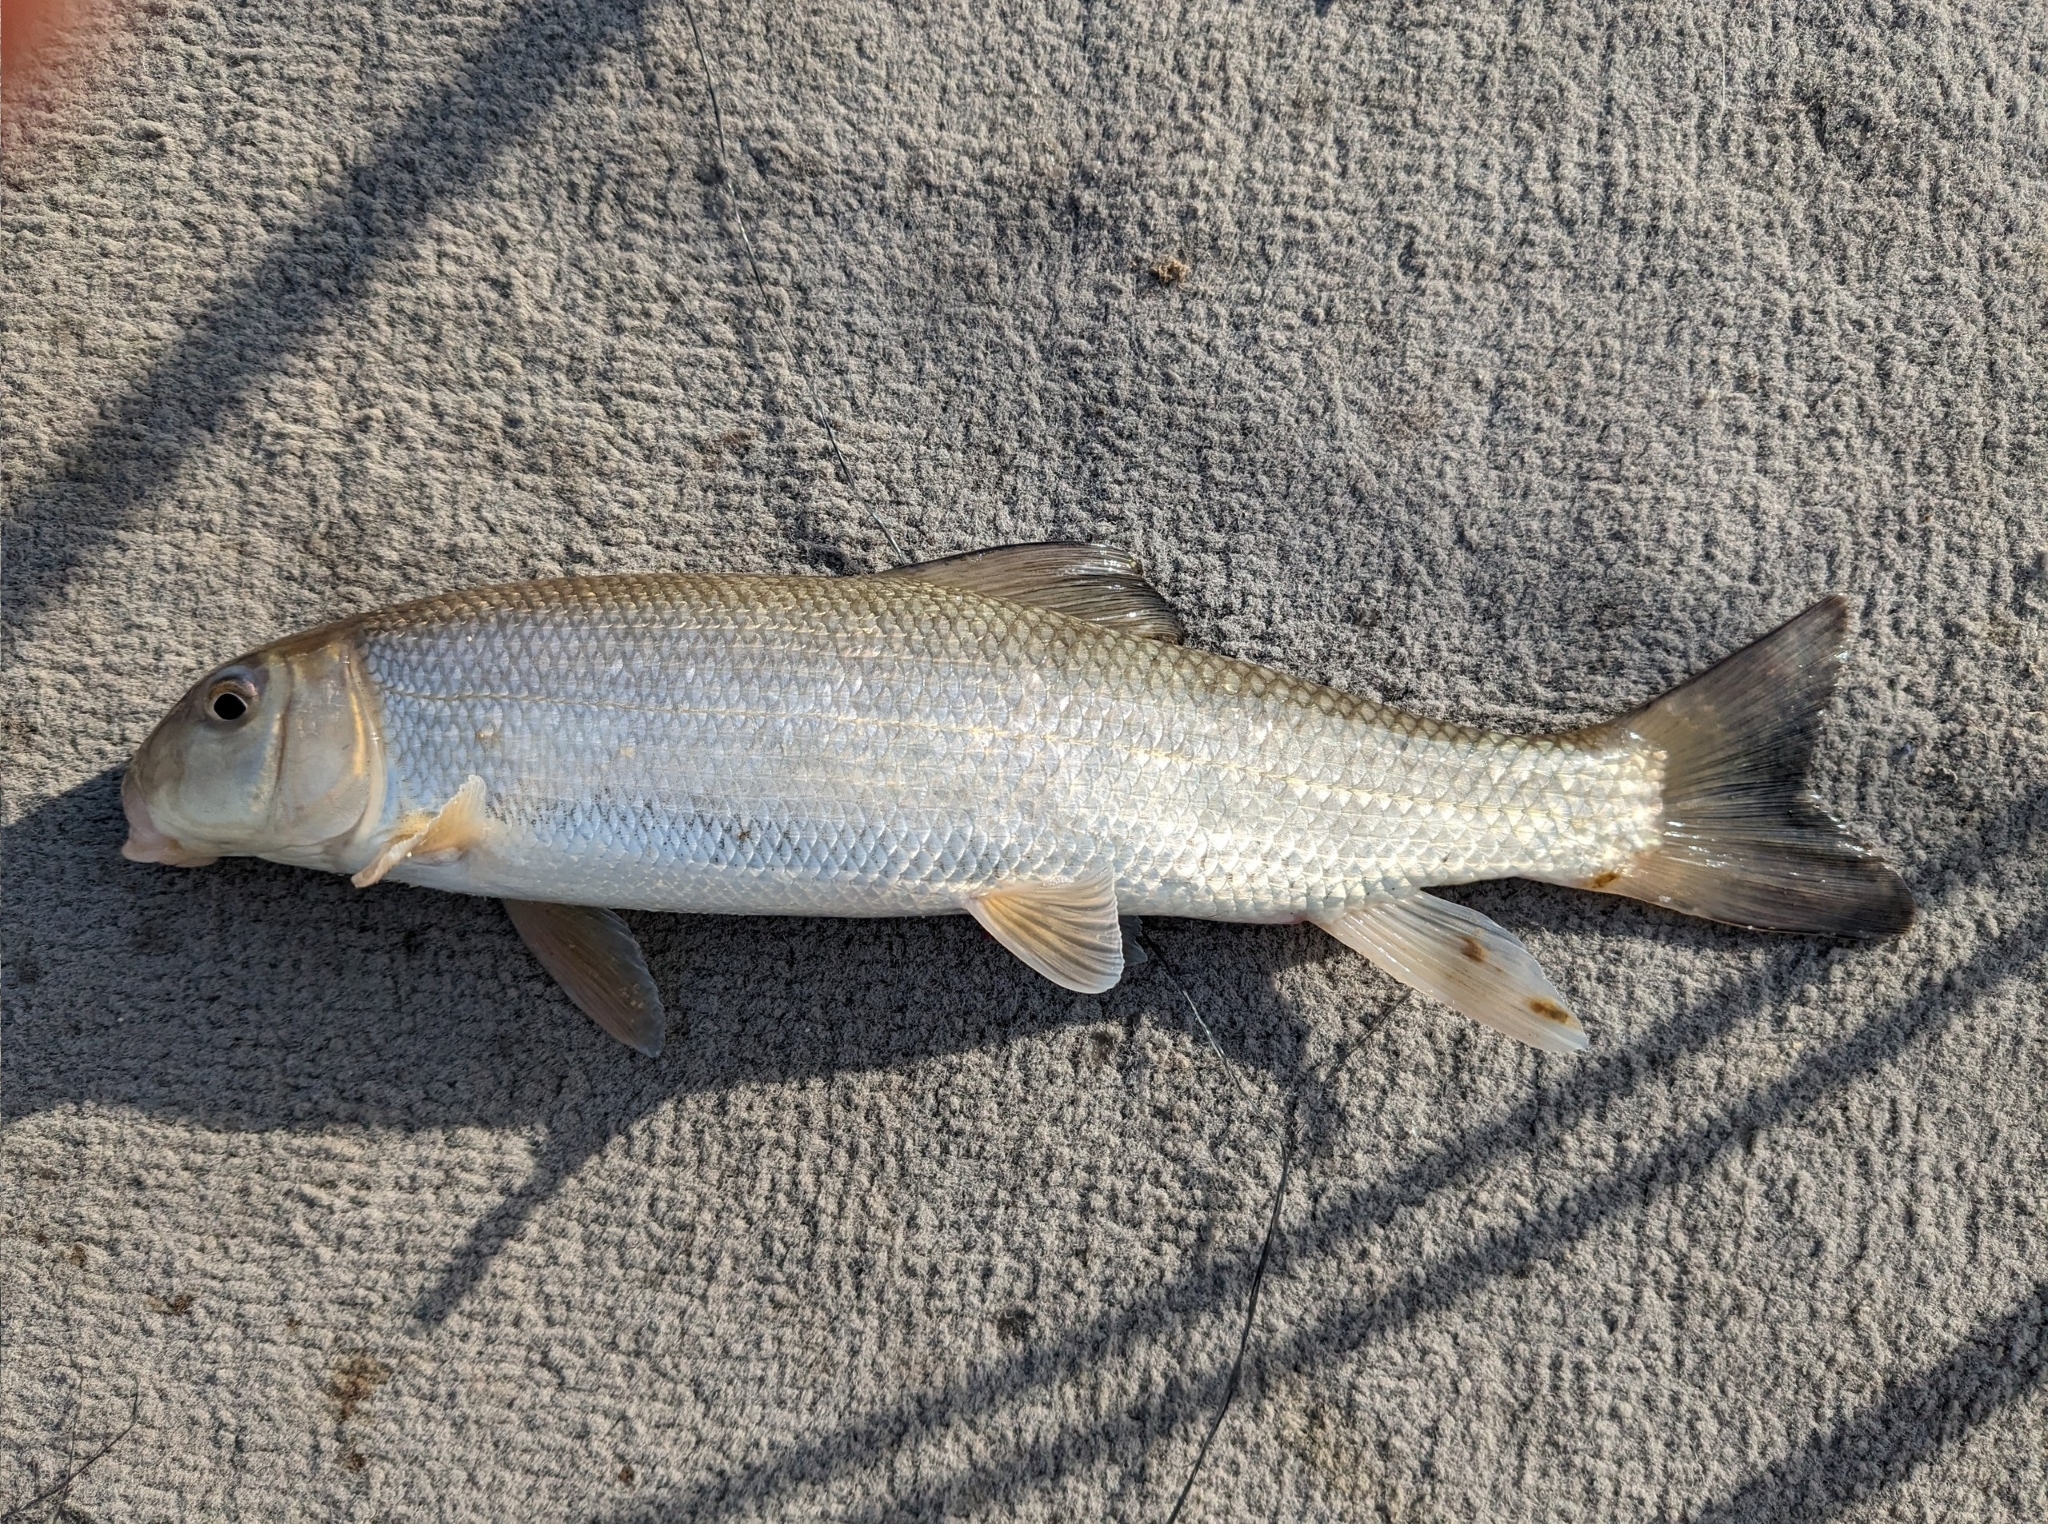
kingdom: Animalia
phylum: Chordata
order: Cypriniformes
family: Catostomidae
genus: Catostomus
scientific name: Catostomus commersonii
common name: White sucker
